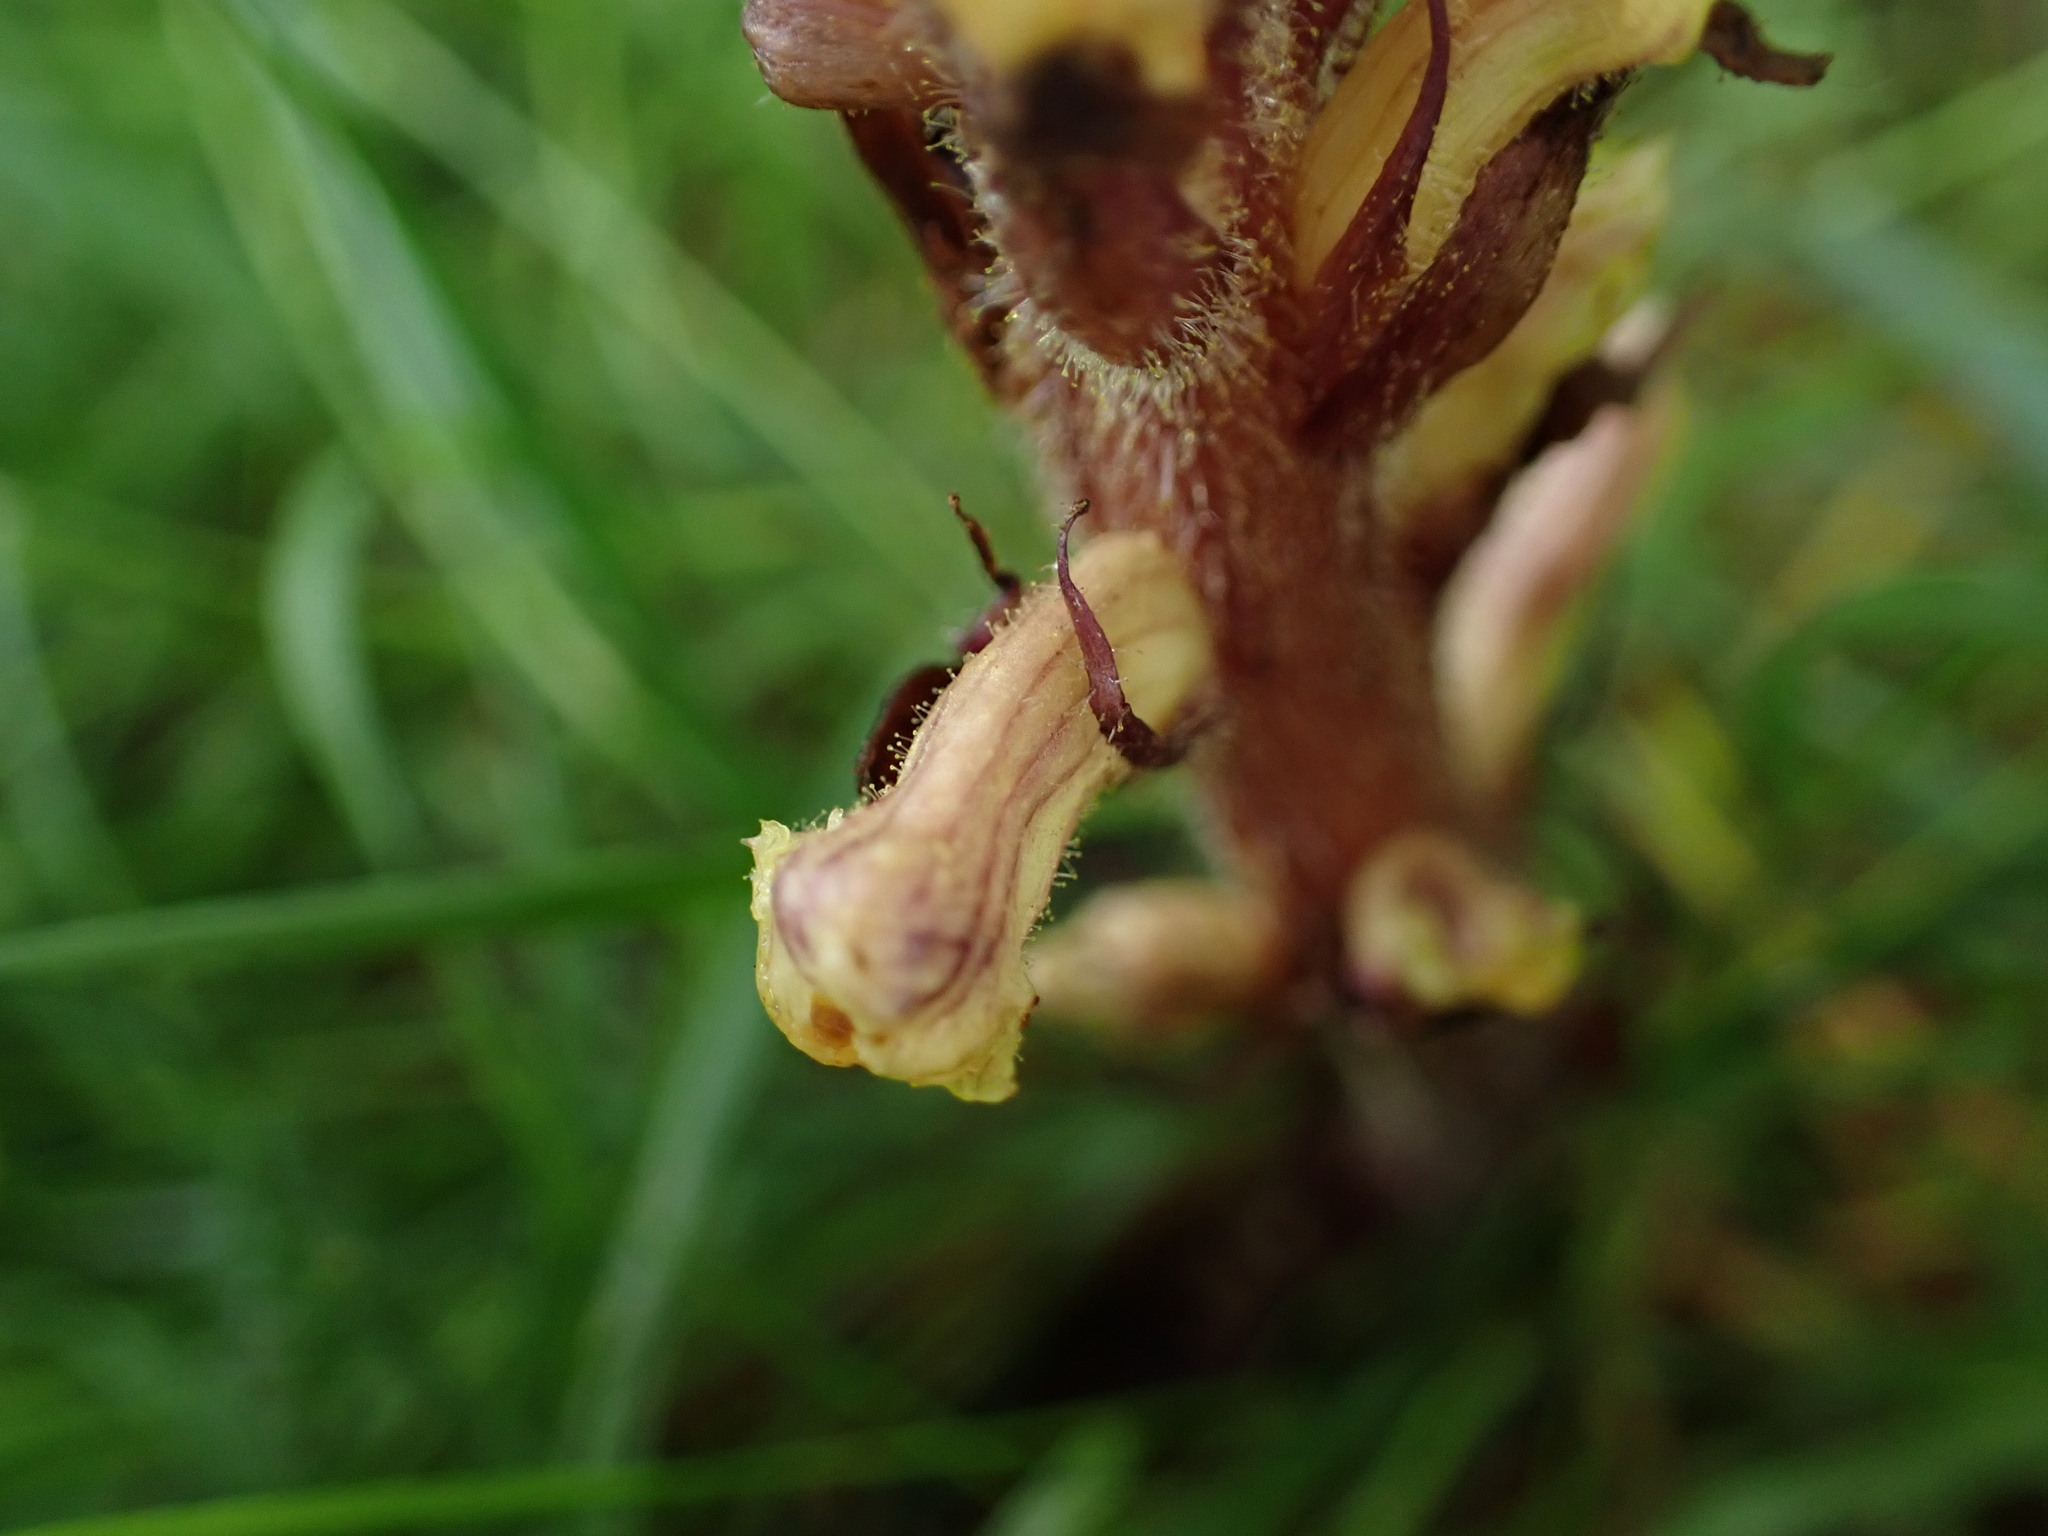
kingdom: Plantae
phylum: Tracheophyta
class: Magnoliopsida
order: Lamiales
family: Orobanchaceae
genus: Orobanche
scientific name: Orobanche hederae
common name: Ivy broomrape
